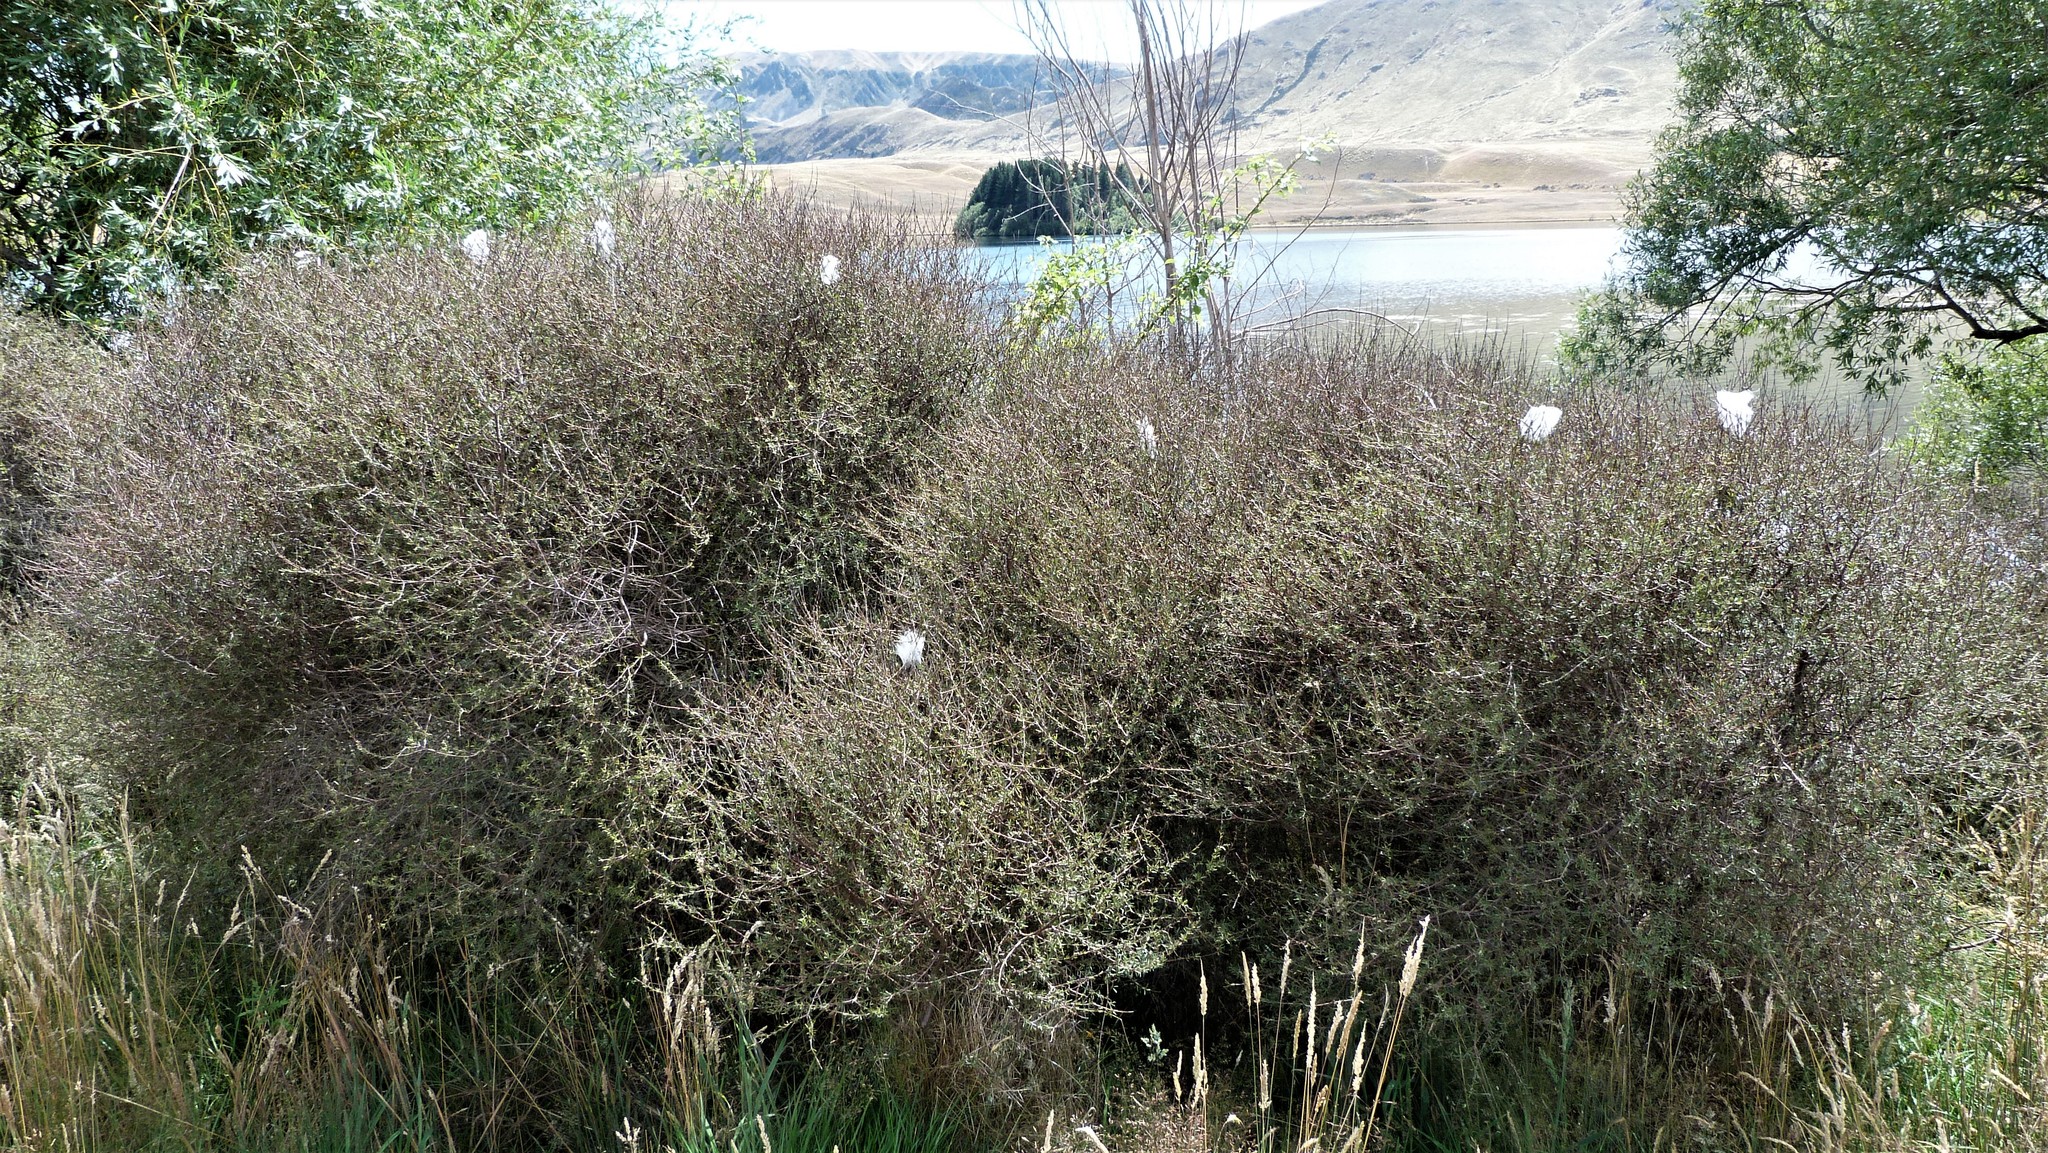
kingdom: Plantae
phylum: Tracheophyta
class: Magnoliopsida
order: Gentianales
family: Rubiaceae
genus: Coprosma
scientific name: Coprosma intertexta
